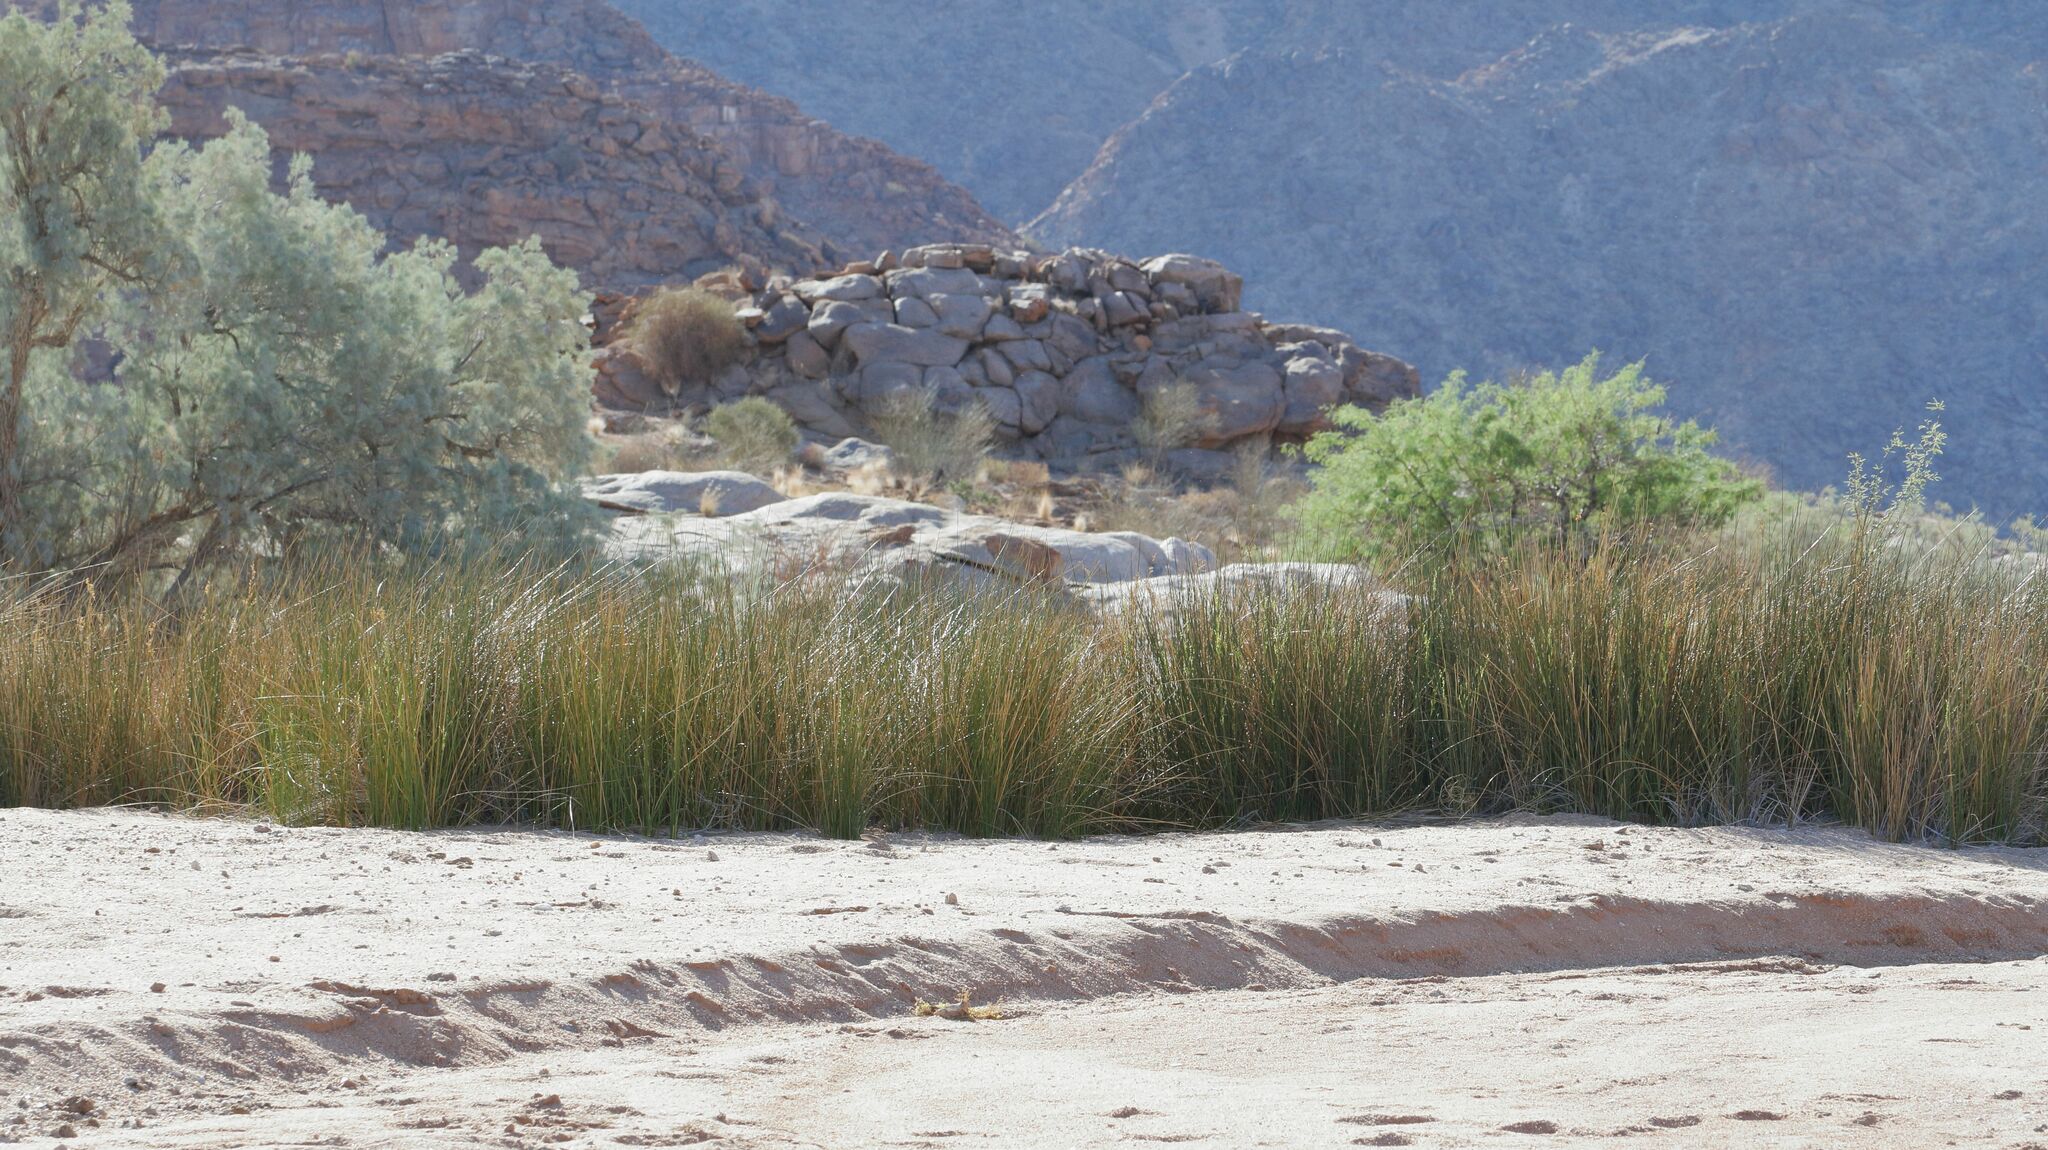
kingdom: Plantae
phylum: Tracheophyta
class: Liliopsida
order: Poales
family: Juncaceae
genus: Juncus
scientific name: Juncus rigidus
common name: Hard sea rush
